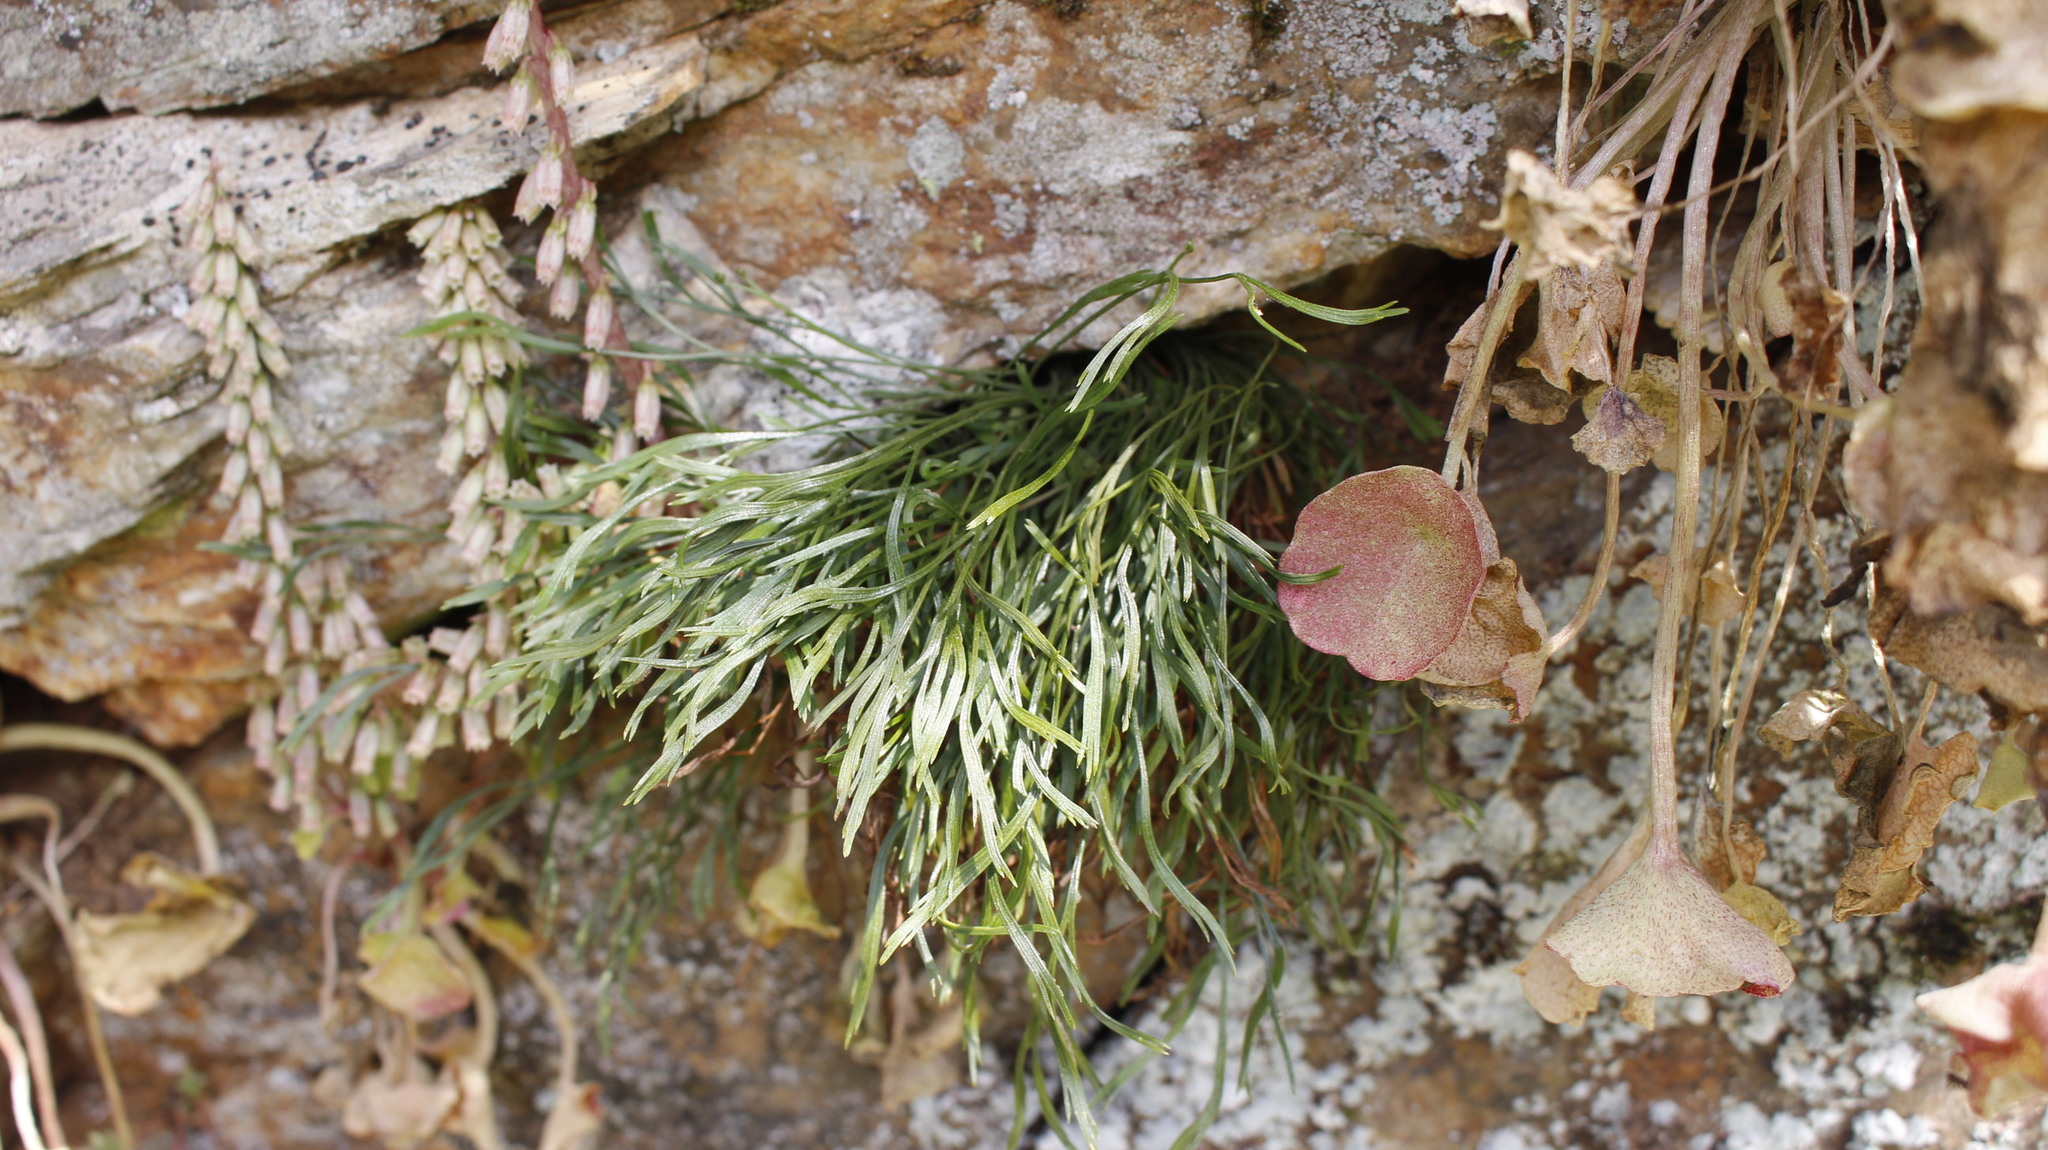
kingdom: Plantae
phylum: Tracheophyta
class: Polypodiopsida
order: Polypodiales
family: Aspleniaceae
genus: Asplenium
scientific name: Asplenium septentrionale
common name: Forked spleenwort
